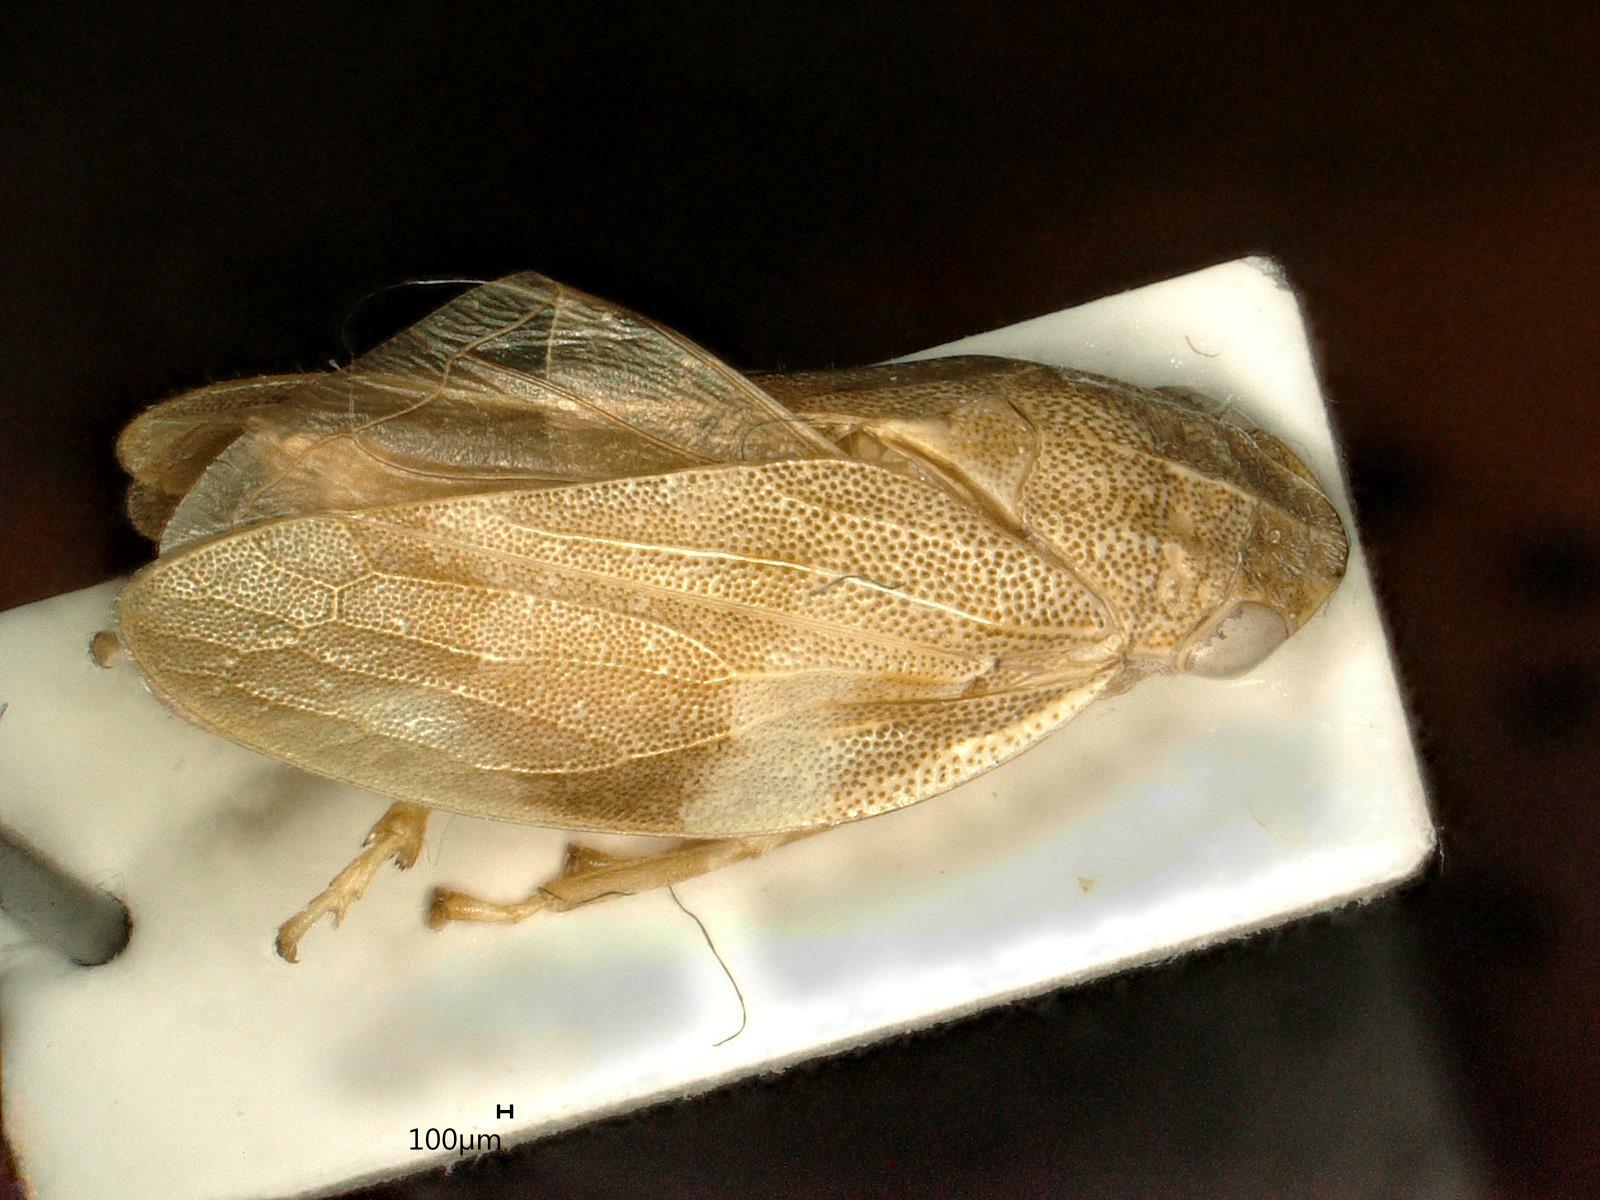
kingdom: Animalia
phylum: Arthropoda
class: Insecta
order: Hemiptera
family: Aphrophoridae
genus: Aphrophora
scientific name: Aphrophora alni
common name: European alder spittlebug
